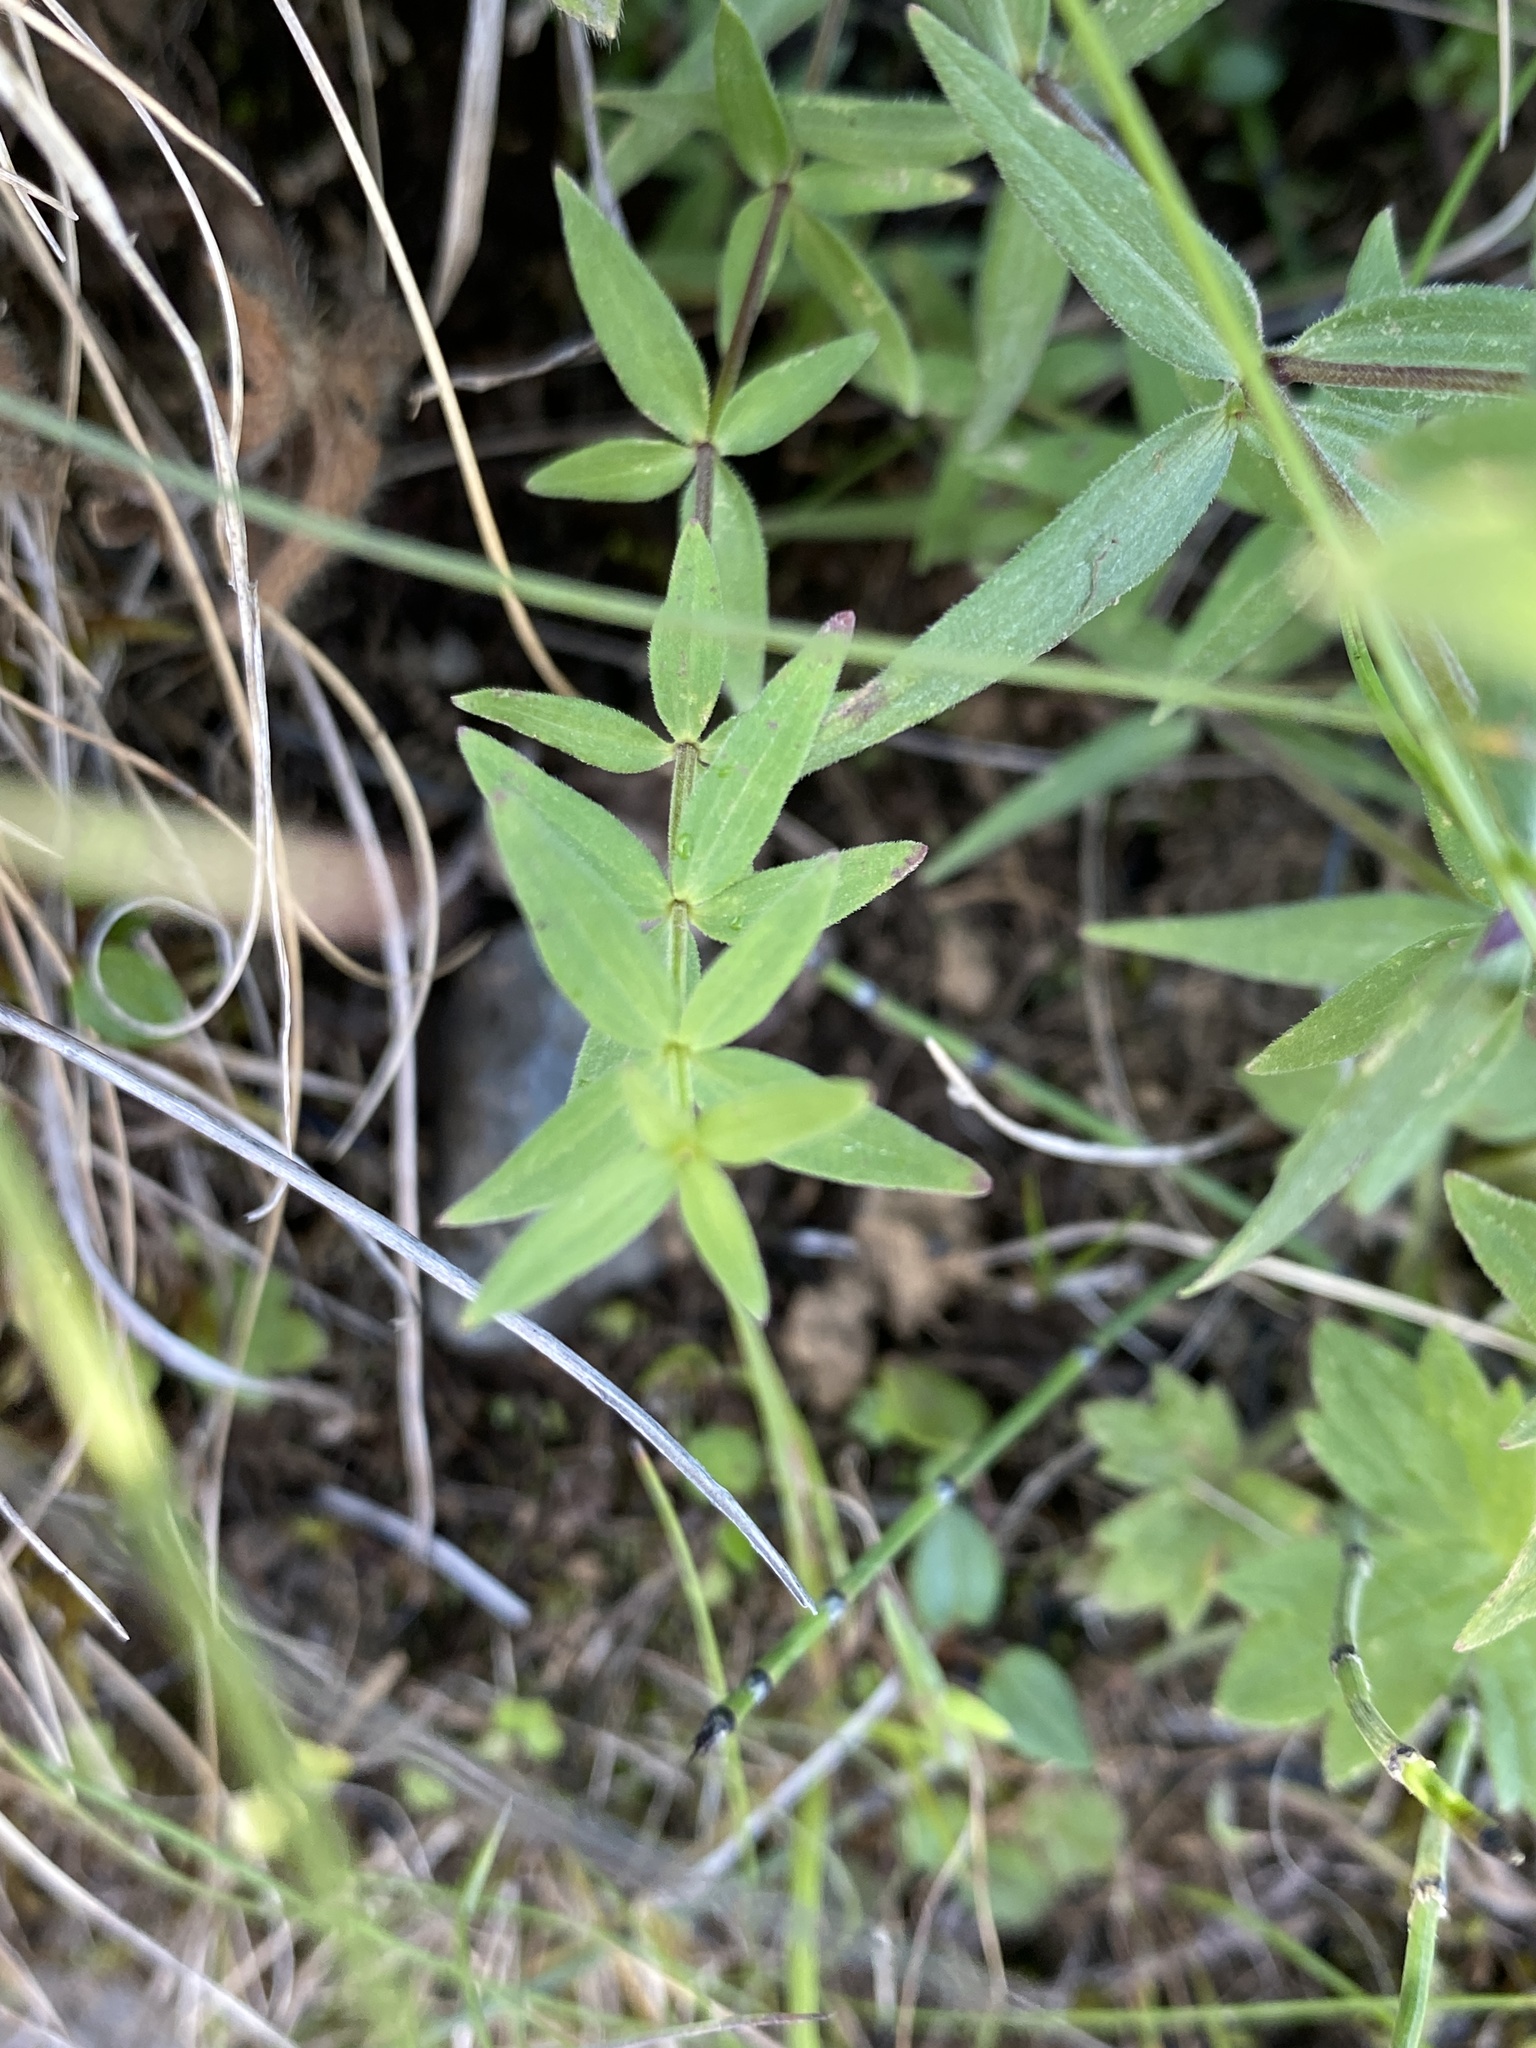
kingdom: Plantae
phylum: Tracheophyta
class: Magnoliopsida
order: Gentianales
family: Rubiaceae
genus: Galium
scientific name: Galium boreale
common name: Northern bedstraw
